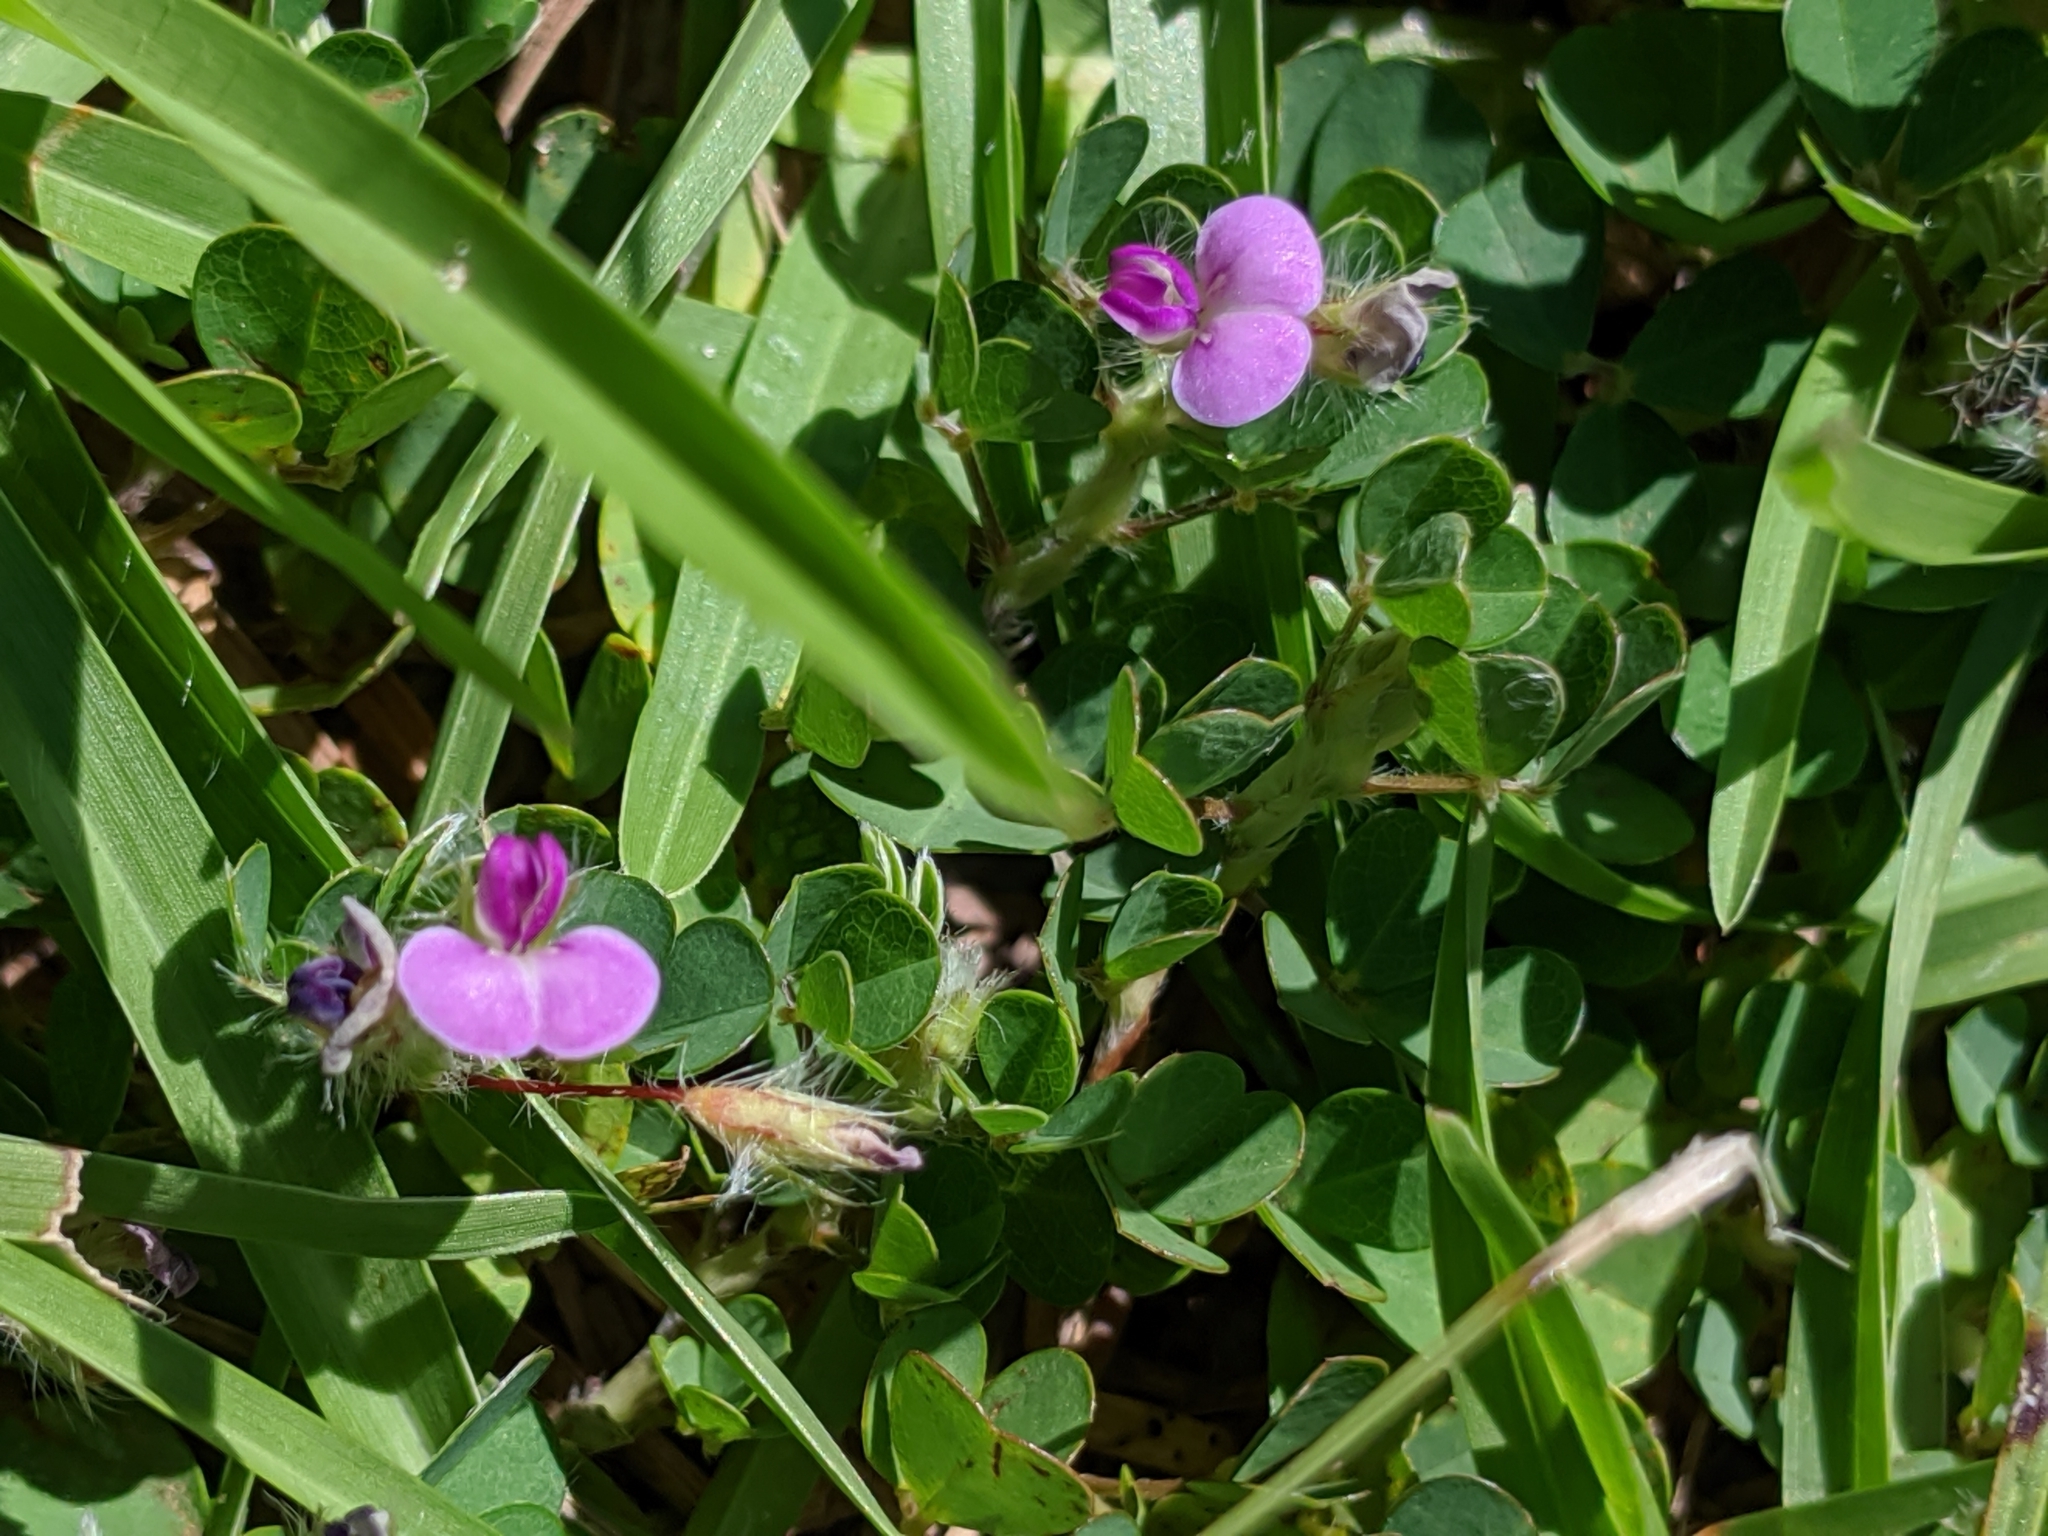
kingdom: Plantae
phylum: Tracheophyta
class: Magnoliopsida
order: Fabales
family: Fabaceae
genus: Grona
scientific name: Grona triflora
